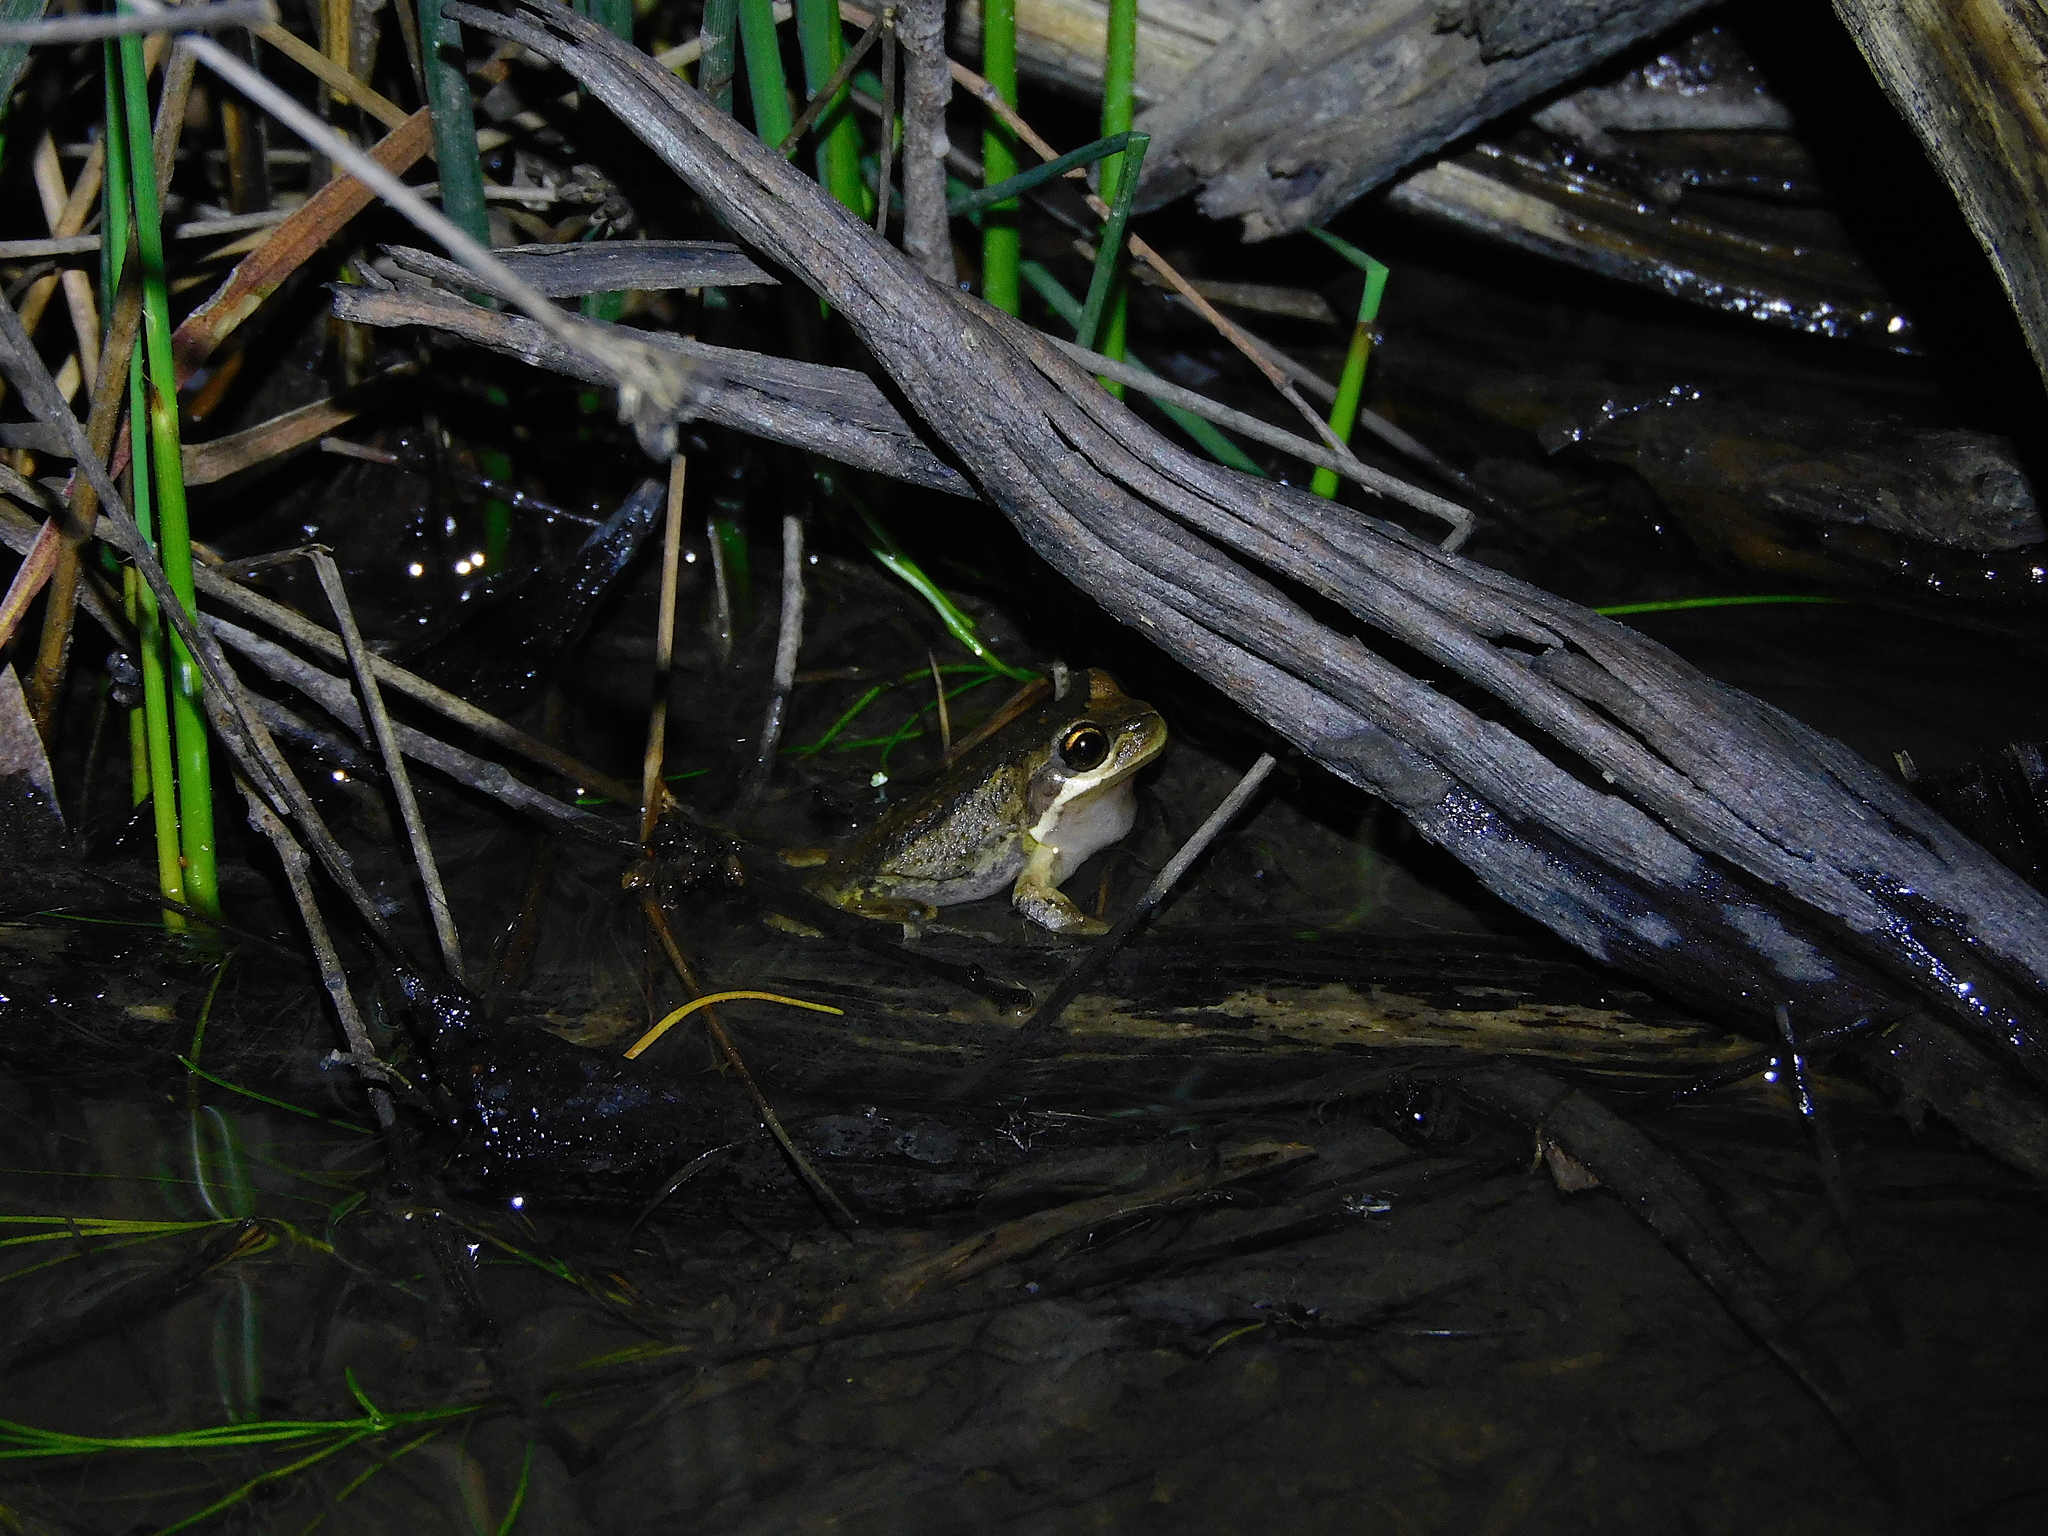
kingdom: Animalia
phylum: Chordata
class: Amphibia
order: Anura
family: Pelodryadidae
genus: Litoria
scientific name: Litoria ewingii
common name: Southern brown tree frog
